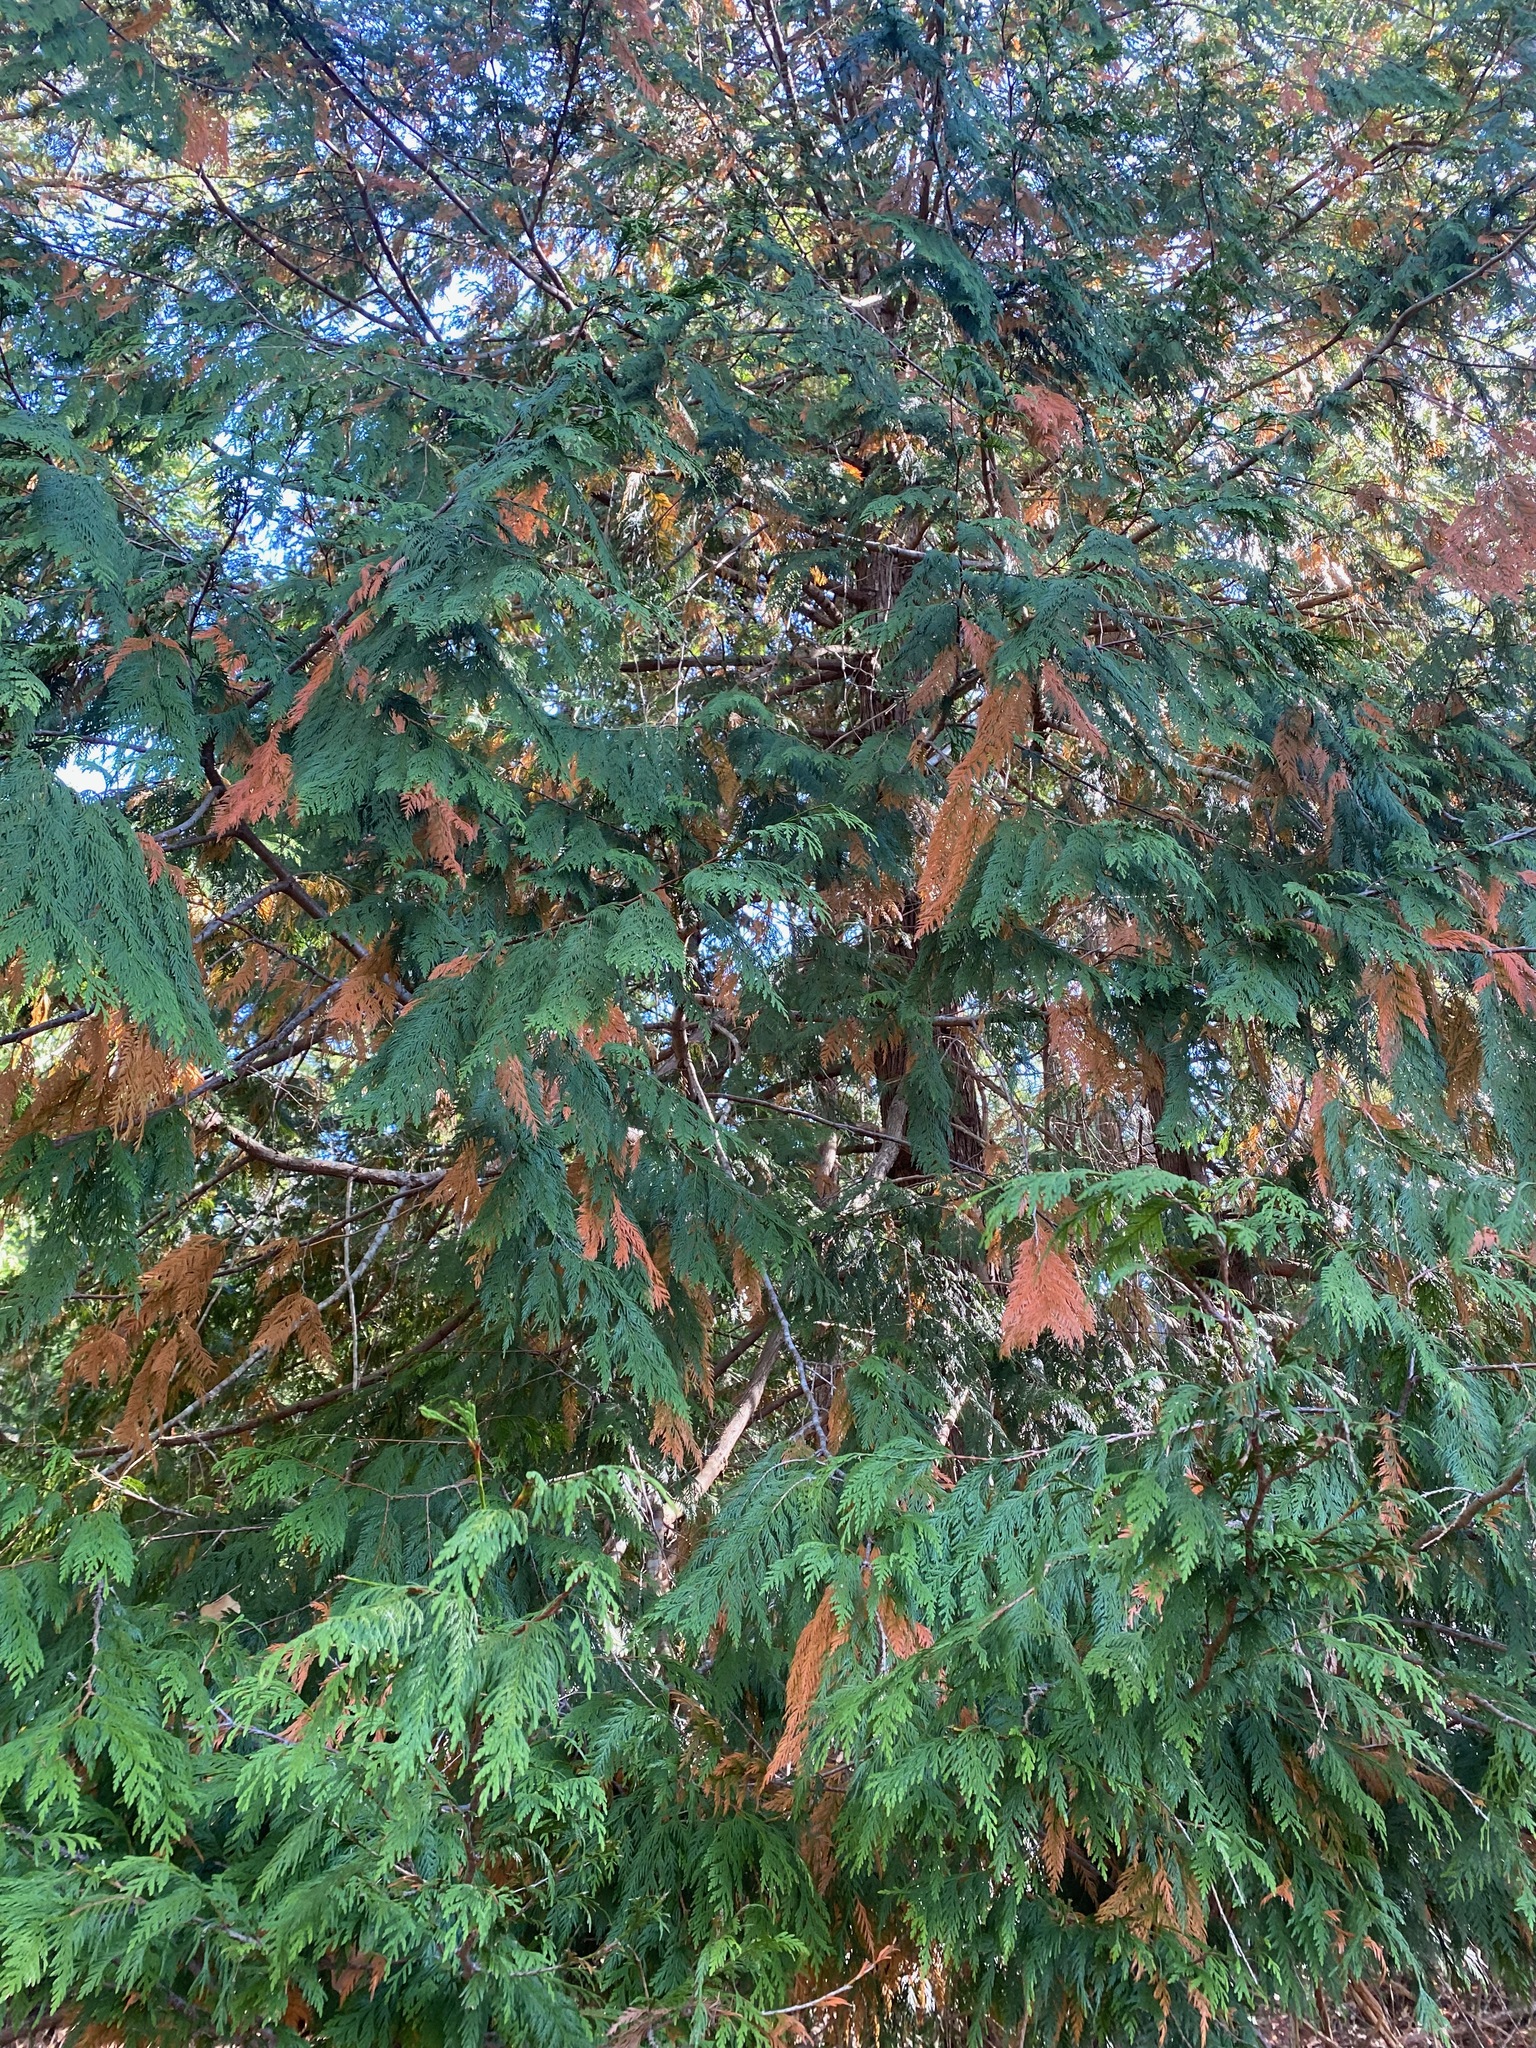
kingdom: Plantae
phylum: Tracheophyta
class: Pinopsida
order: Pinales
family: Cupressaceae
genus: Thuja
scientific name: Thuja plicata
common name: Western red-cedar
